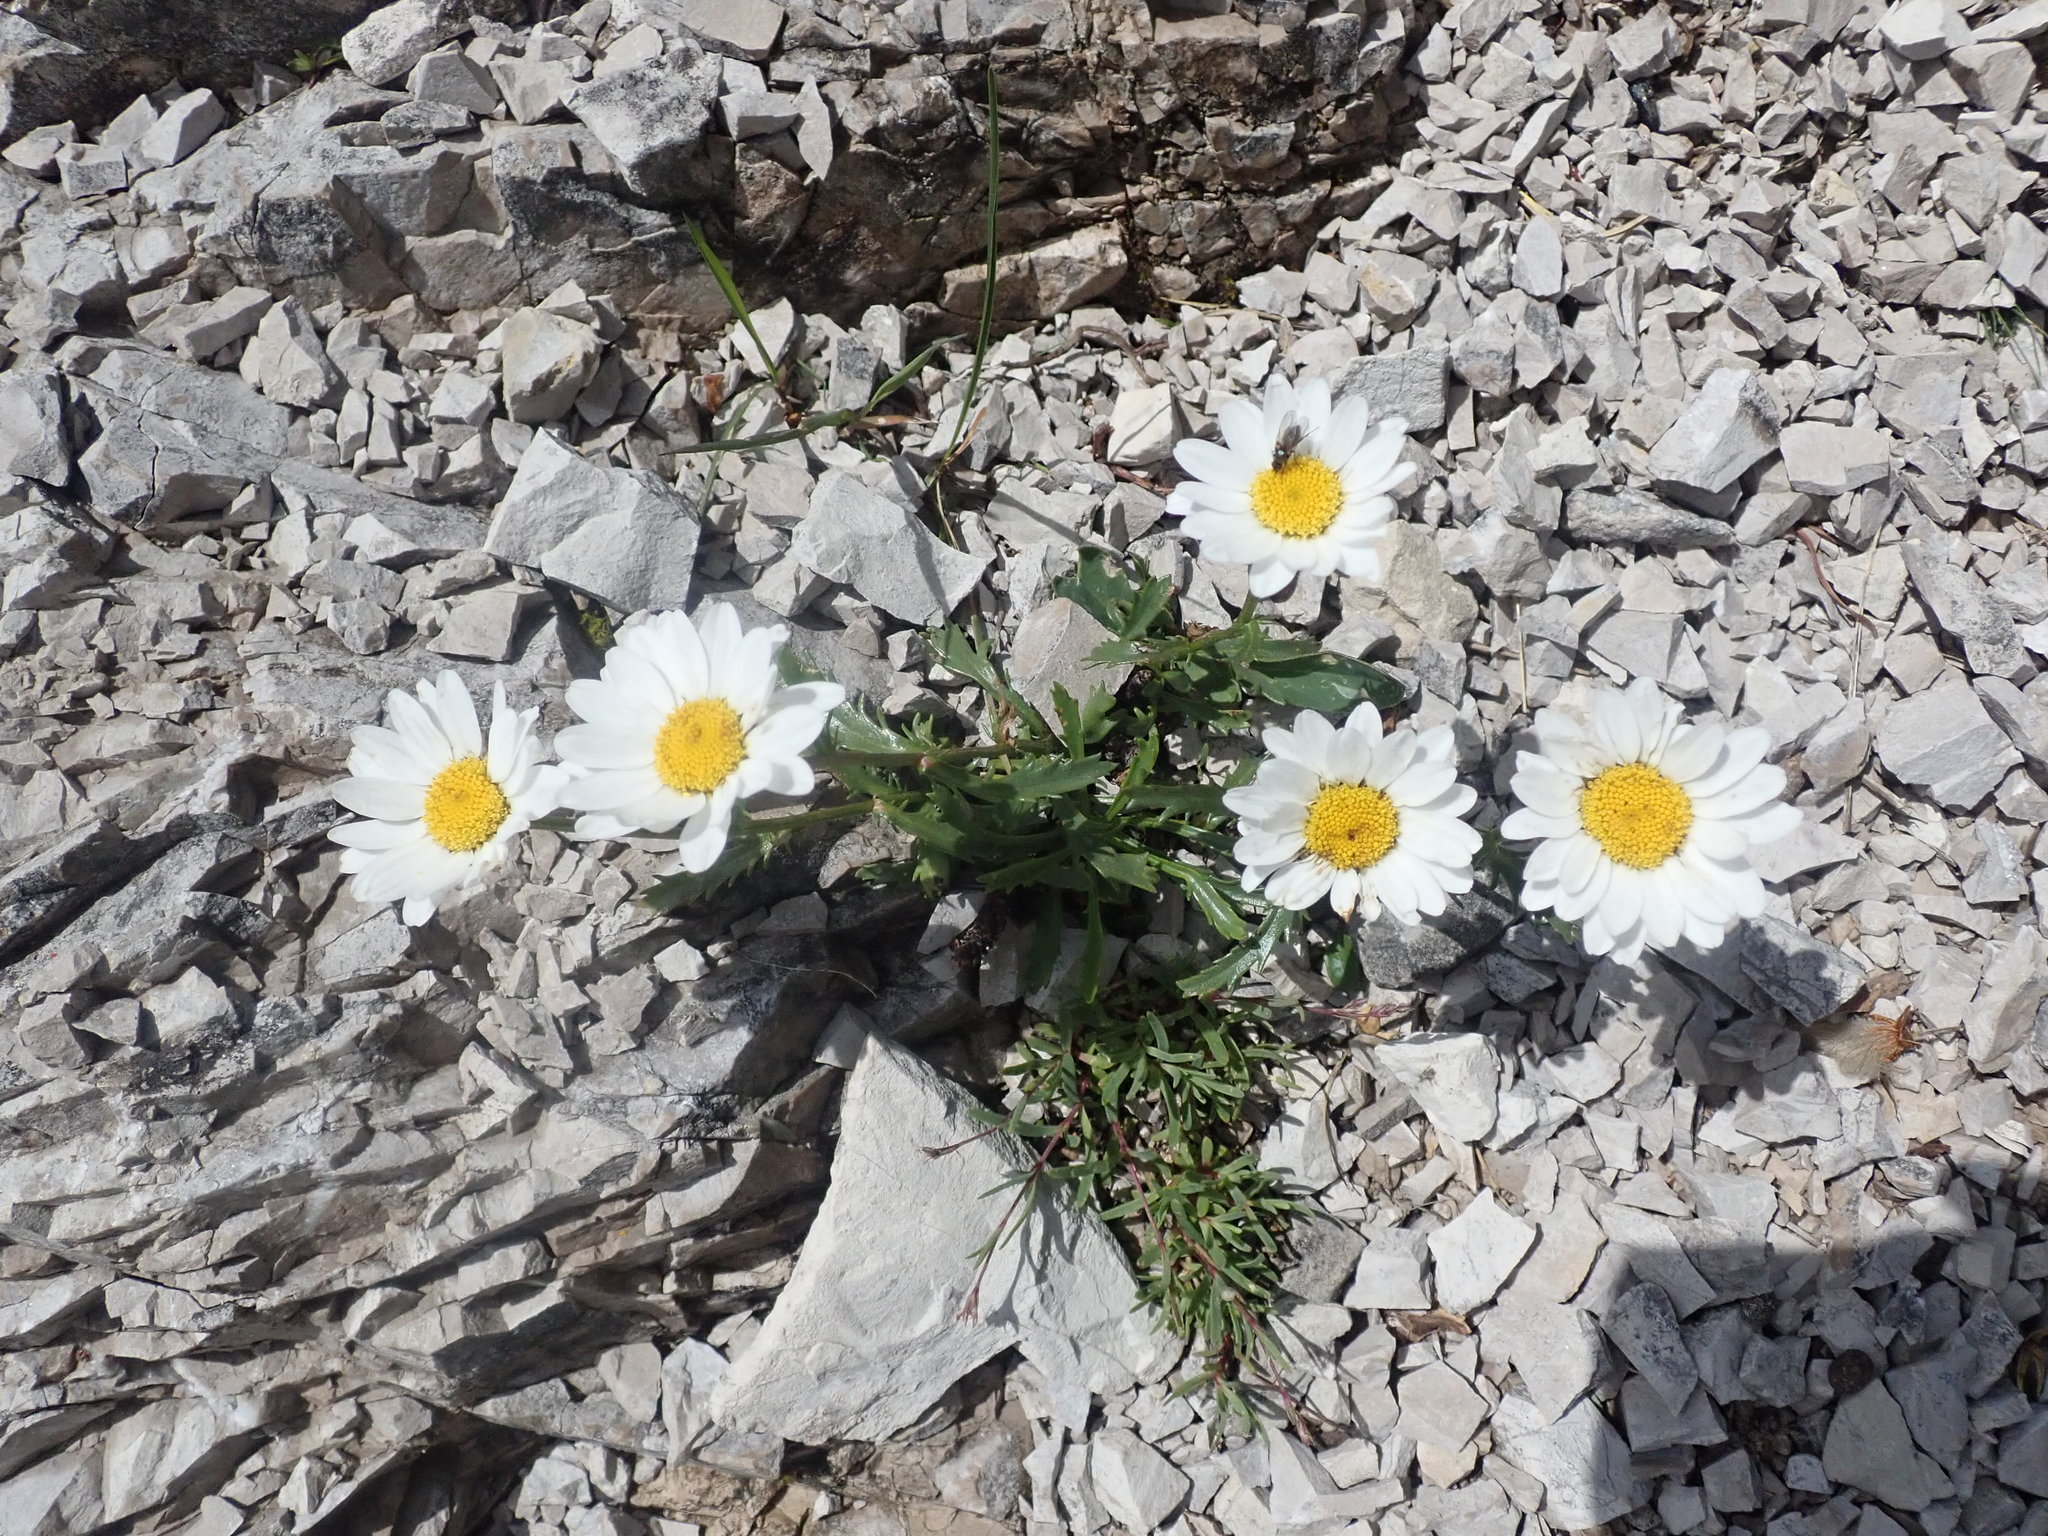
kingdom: Plantae
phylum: Tracheophyta
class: Magnoliopsida
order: Asterales
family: Asteraceae
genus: Leucanthemum
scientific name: Leucanthemum halleri
